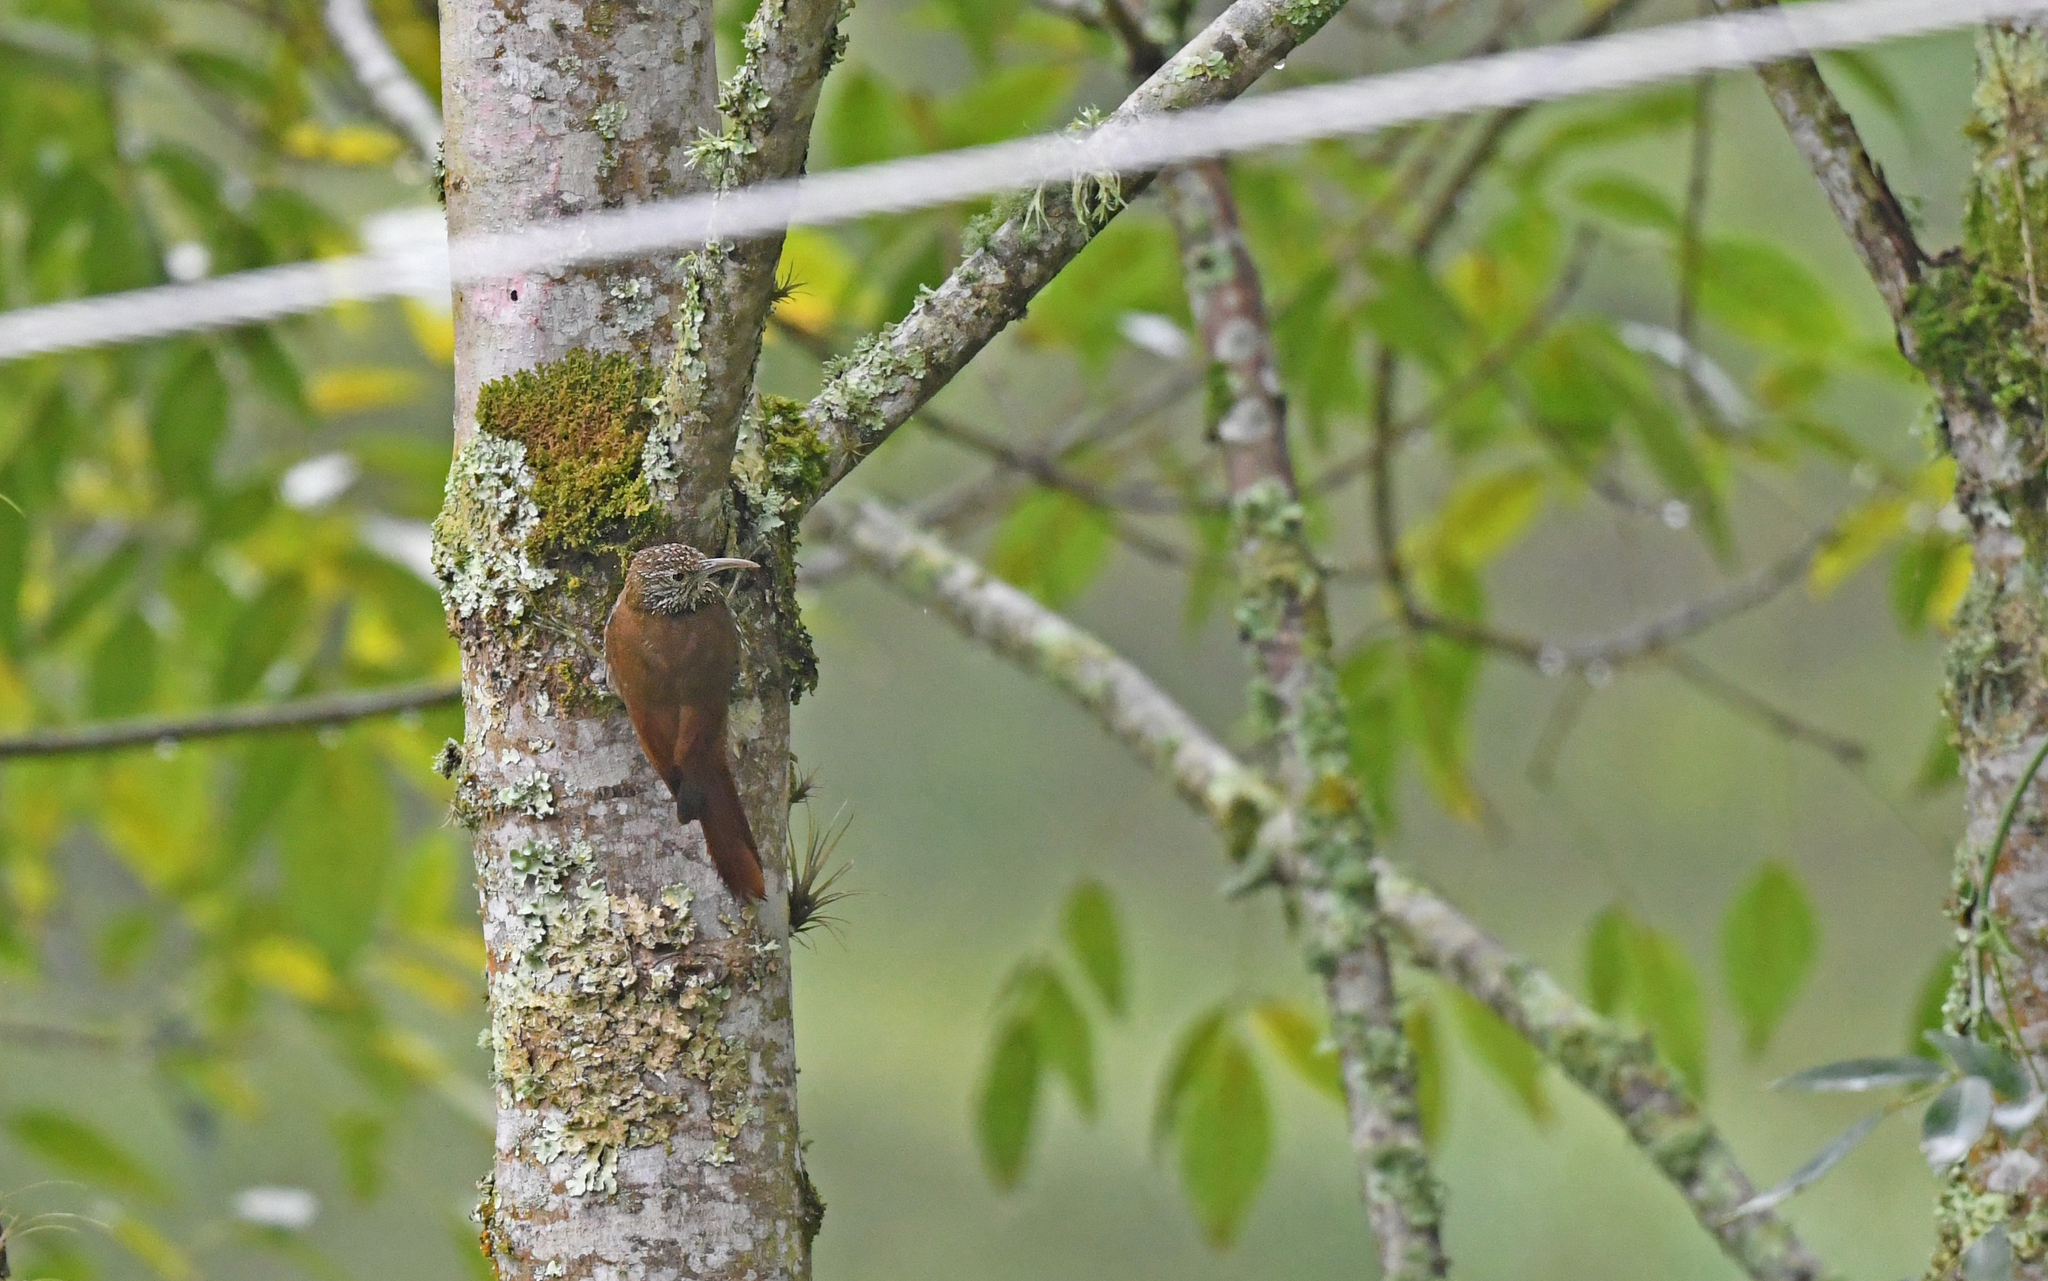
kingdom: Animalia
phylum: Chordata
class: Aves
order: Passeriformes
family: Furnariidae
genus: Lepidocolaptes
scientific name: Lepidocolaptes souleyetii
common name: Streak-headed woodcreeper
